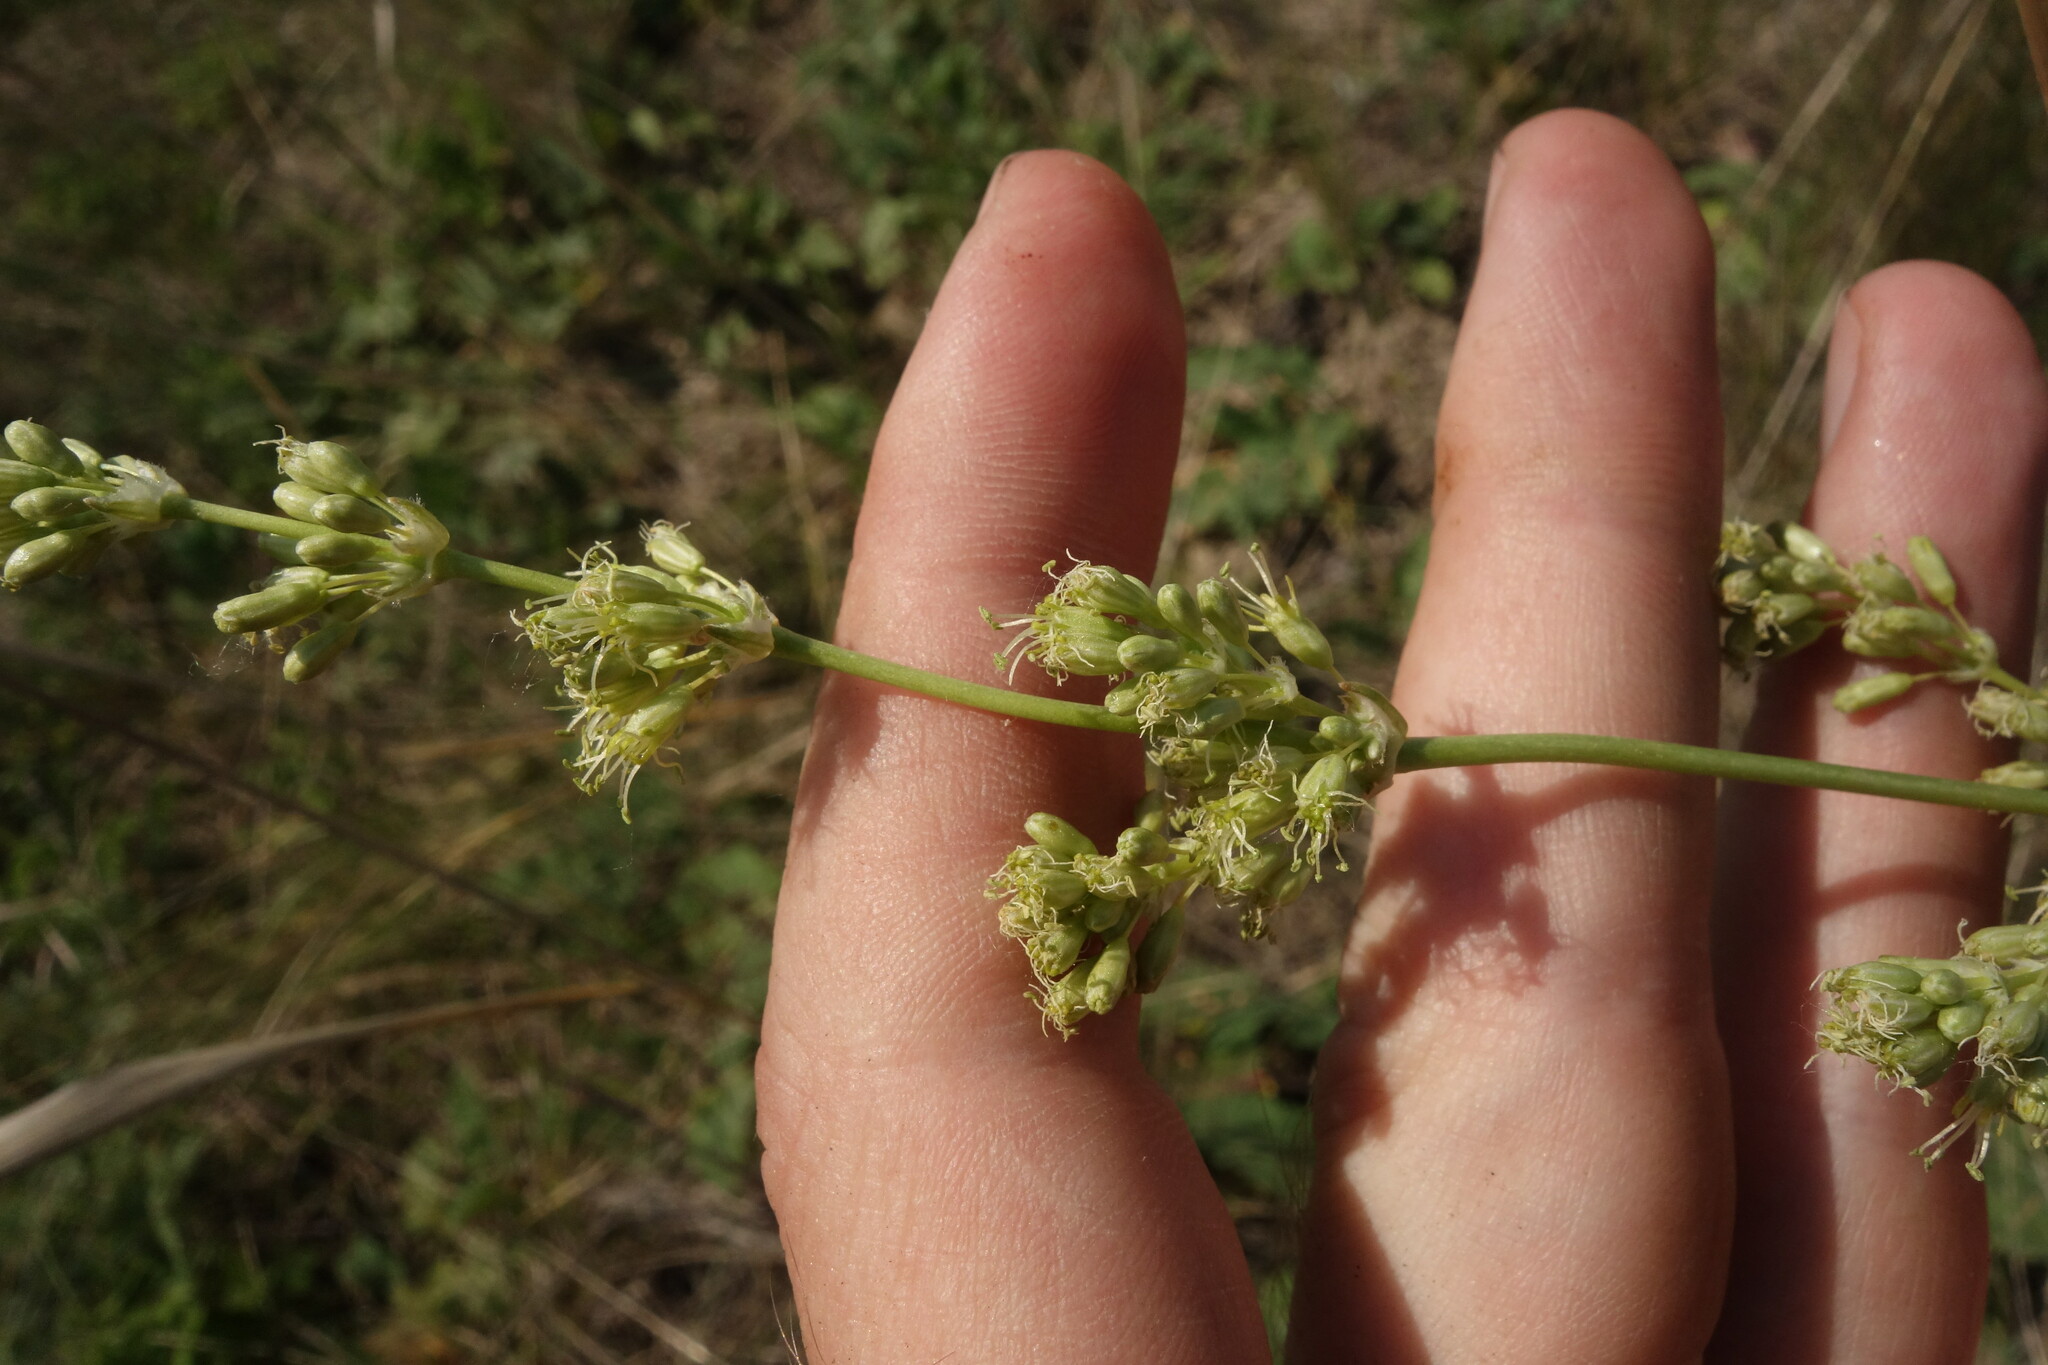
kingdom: Plantae
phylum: Tracheophyta
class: Magnoliopsida
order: Caryophyllales
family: Caryophyllaceae
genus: Silene
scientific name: Silene chersonensis
